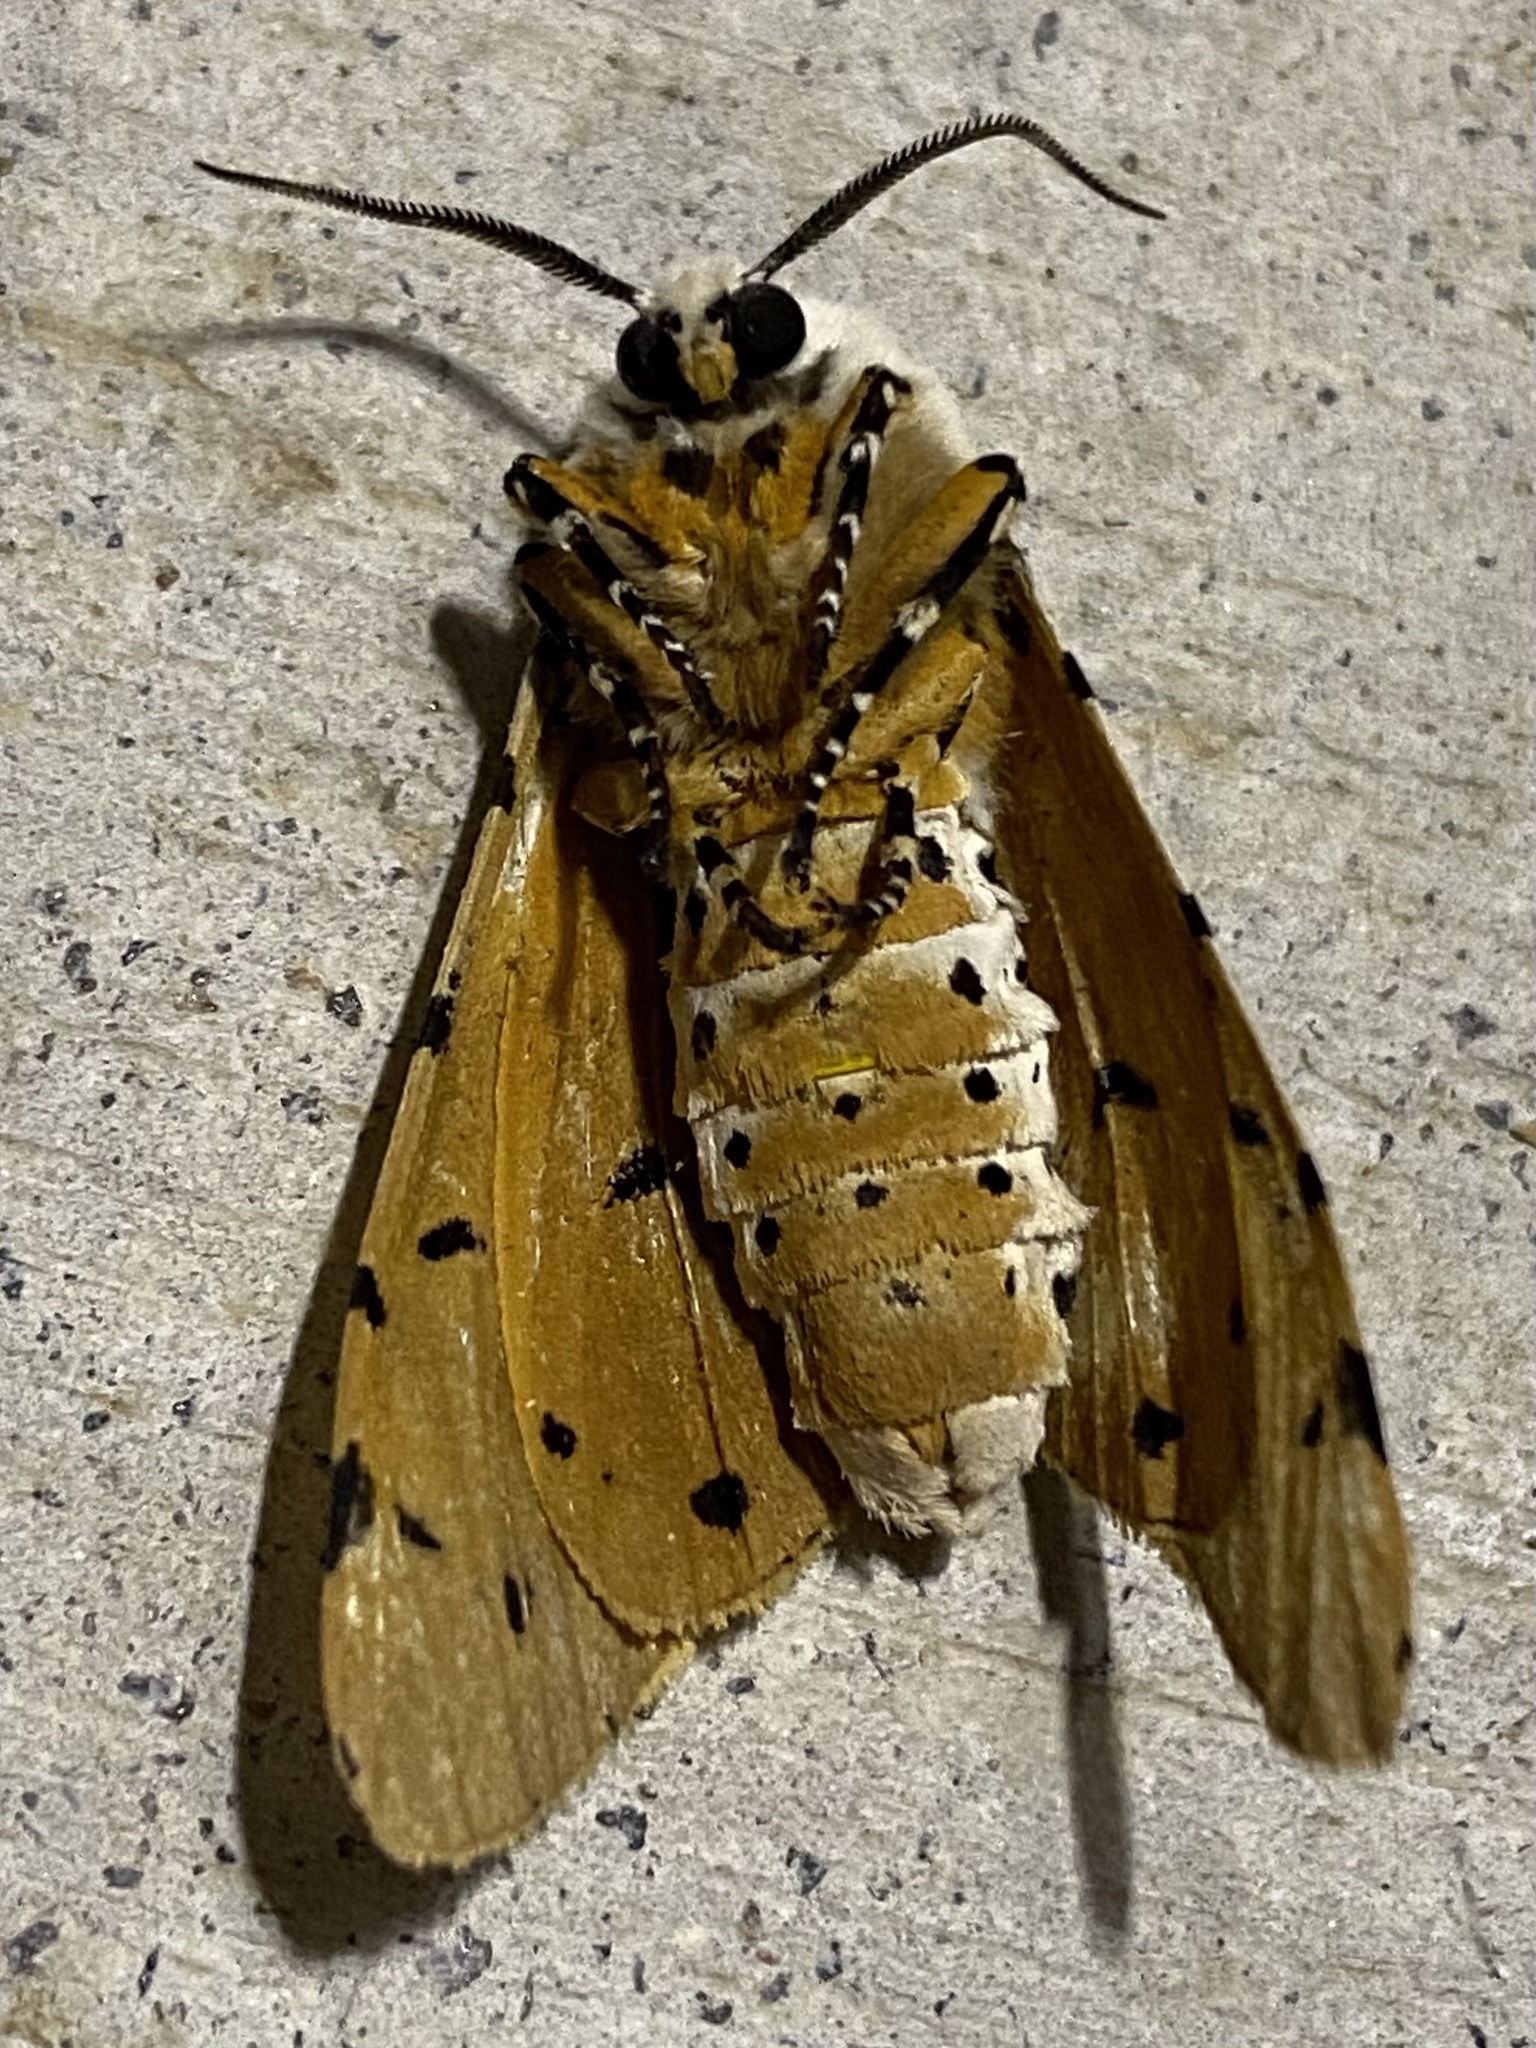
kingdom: Animalia
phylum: Arthropoda
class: Insecta
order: Lepidoptera
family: Erebidae
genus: Estigmene
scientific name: Estigmene acrea
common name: Salt marsh moth
